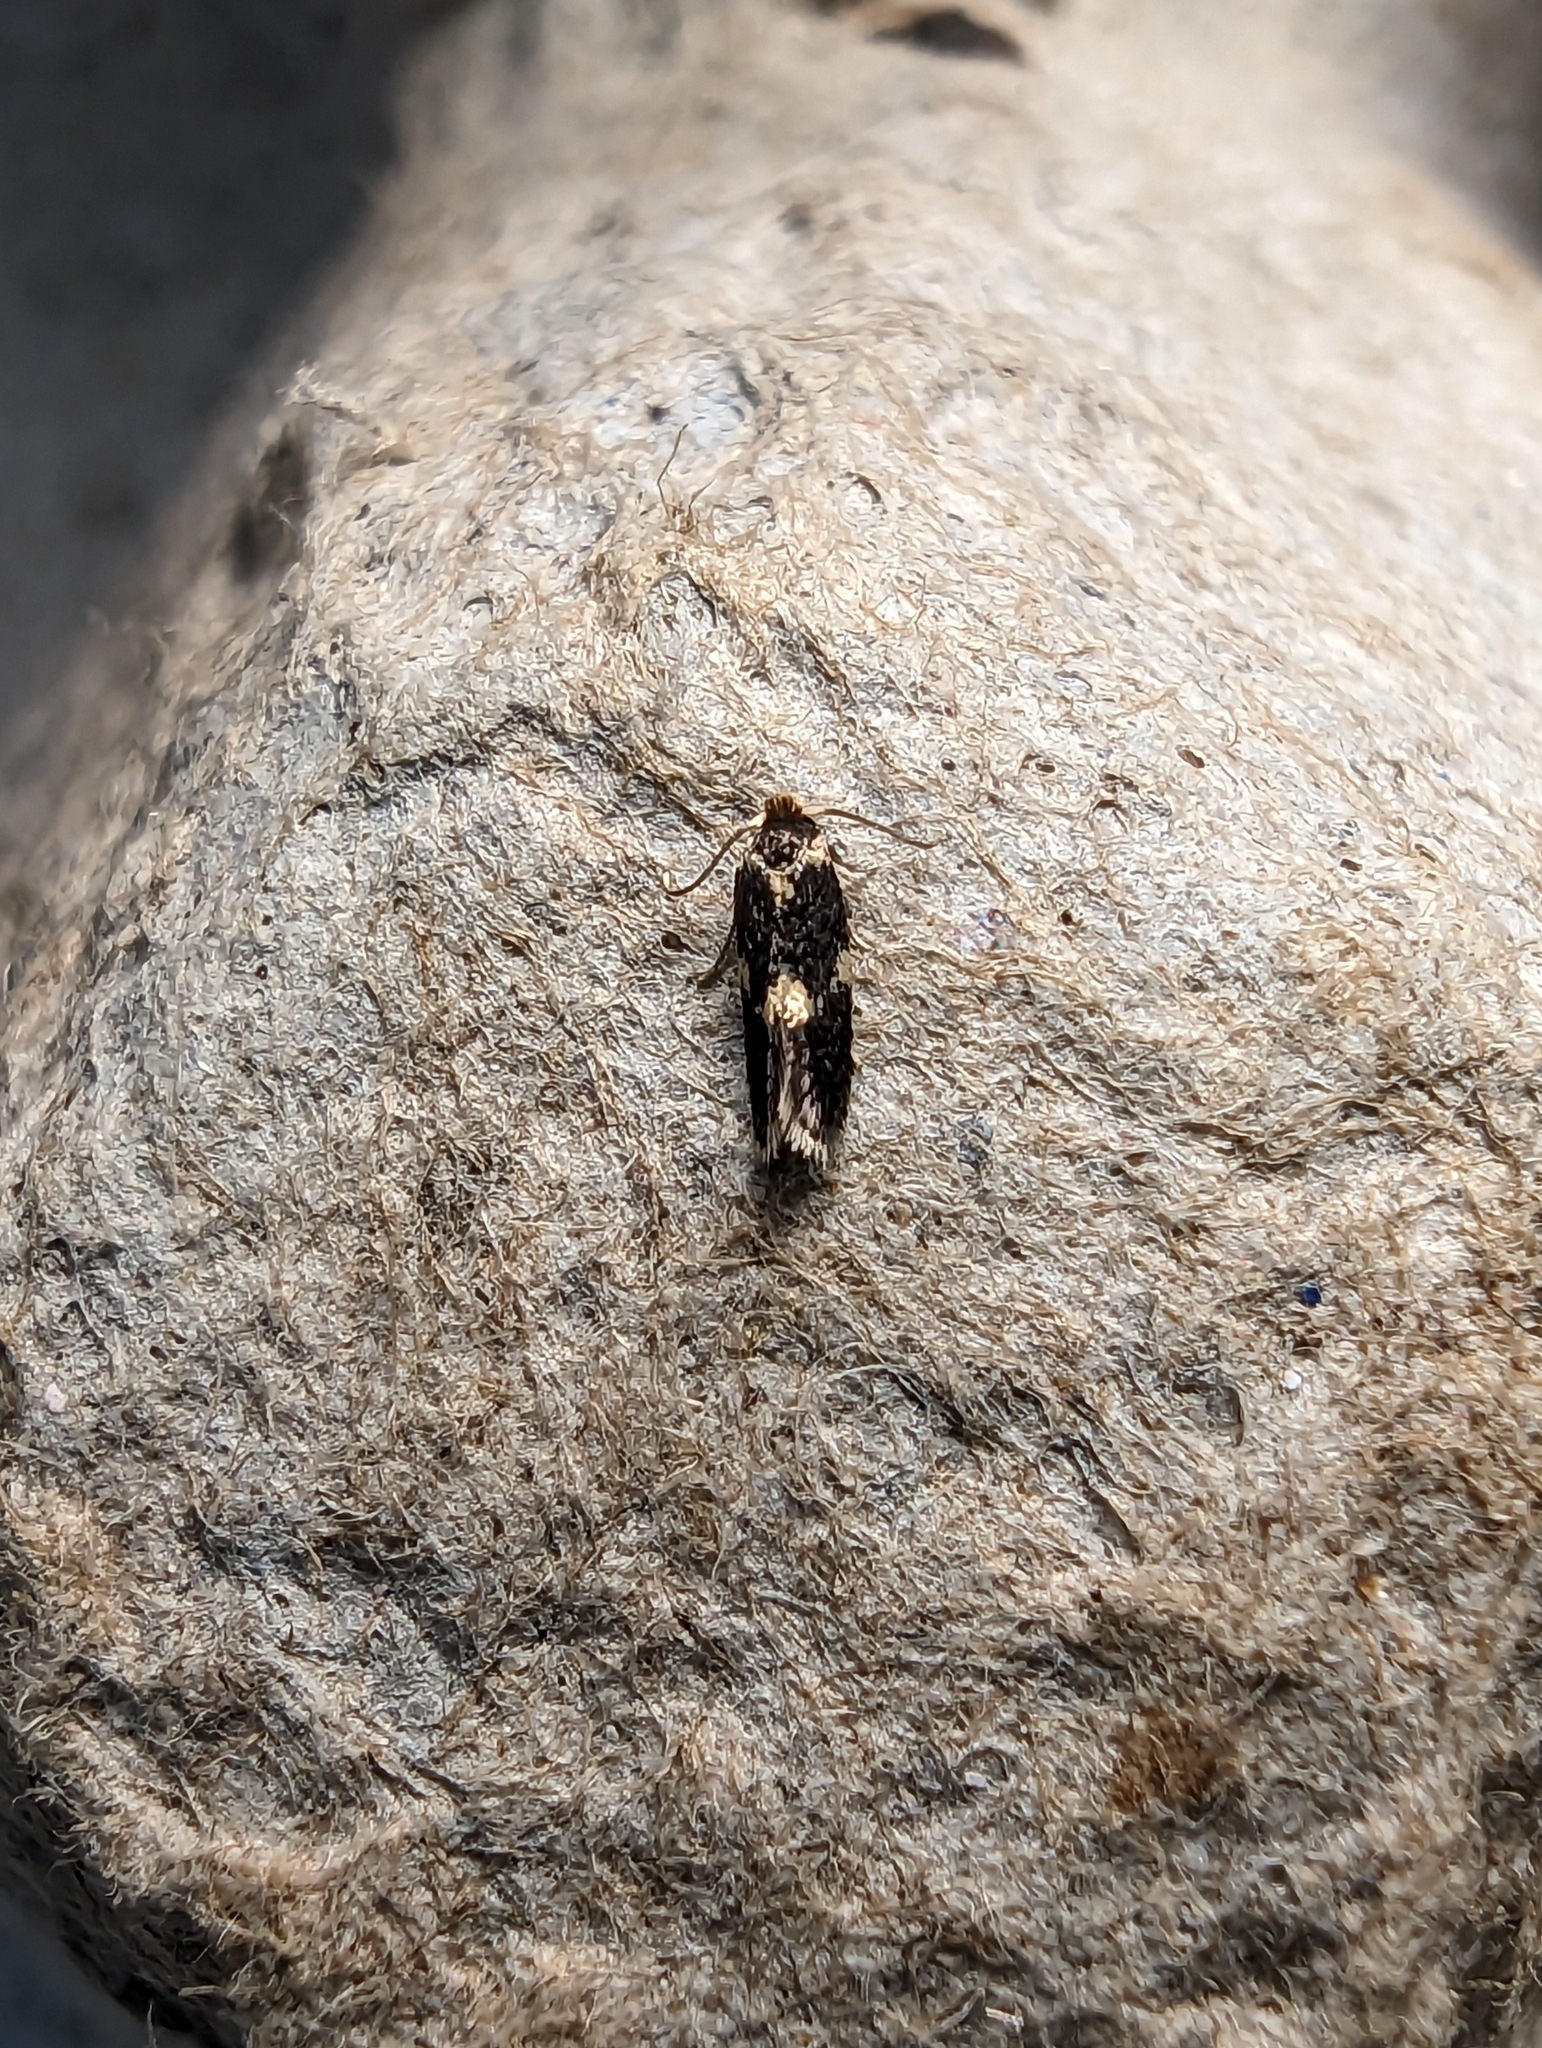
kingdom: Animalia
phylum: Arthropoda
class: Insecta
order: Lepidoptera
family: Nepticulidae
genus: Ectoedemia
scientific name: Ectoedemia subbimaculella
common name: Spotted black pigmy
